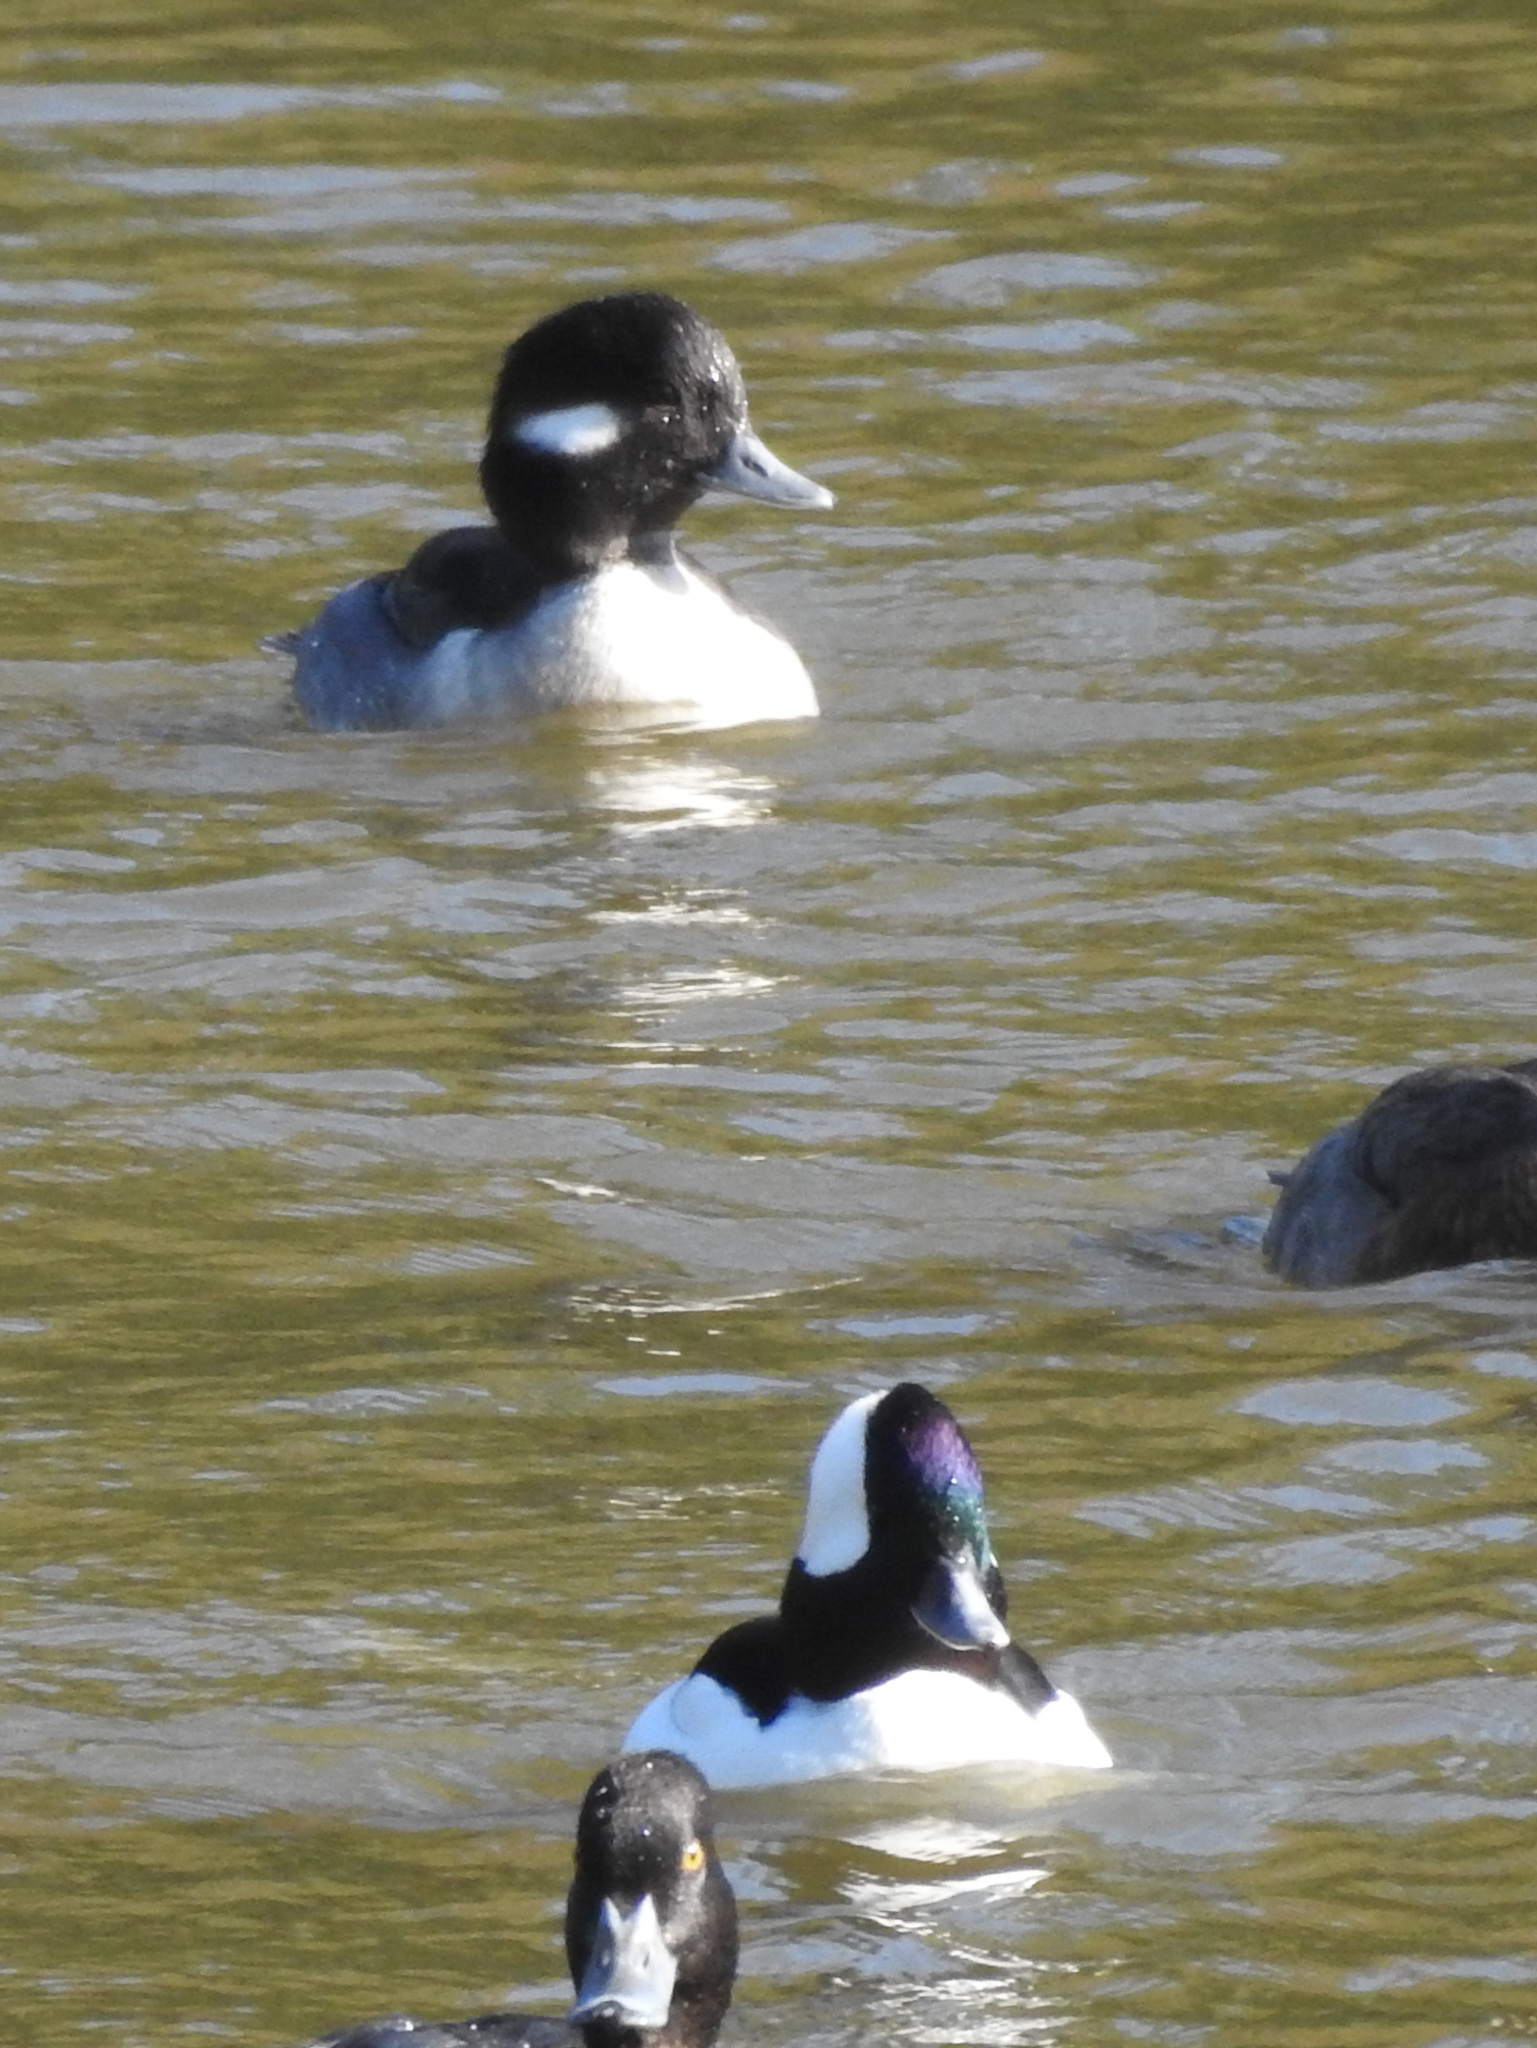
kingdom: Animalia
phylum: Chordata
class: Aves
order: Anseriformes
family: Anatidae
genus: Bucephala
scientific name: Bucephala albeola
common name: Bufflehead
